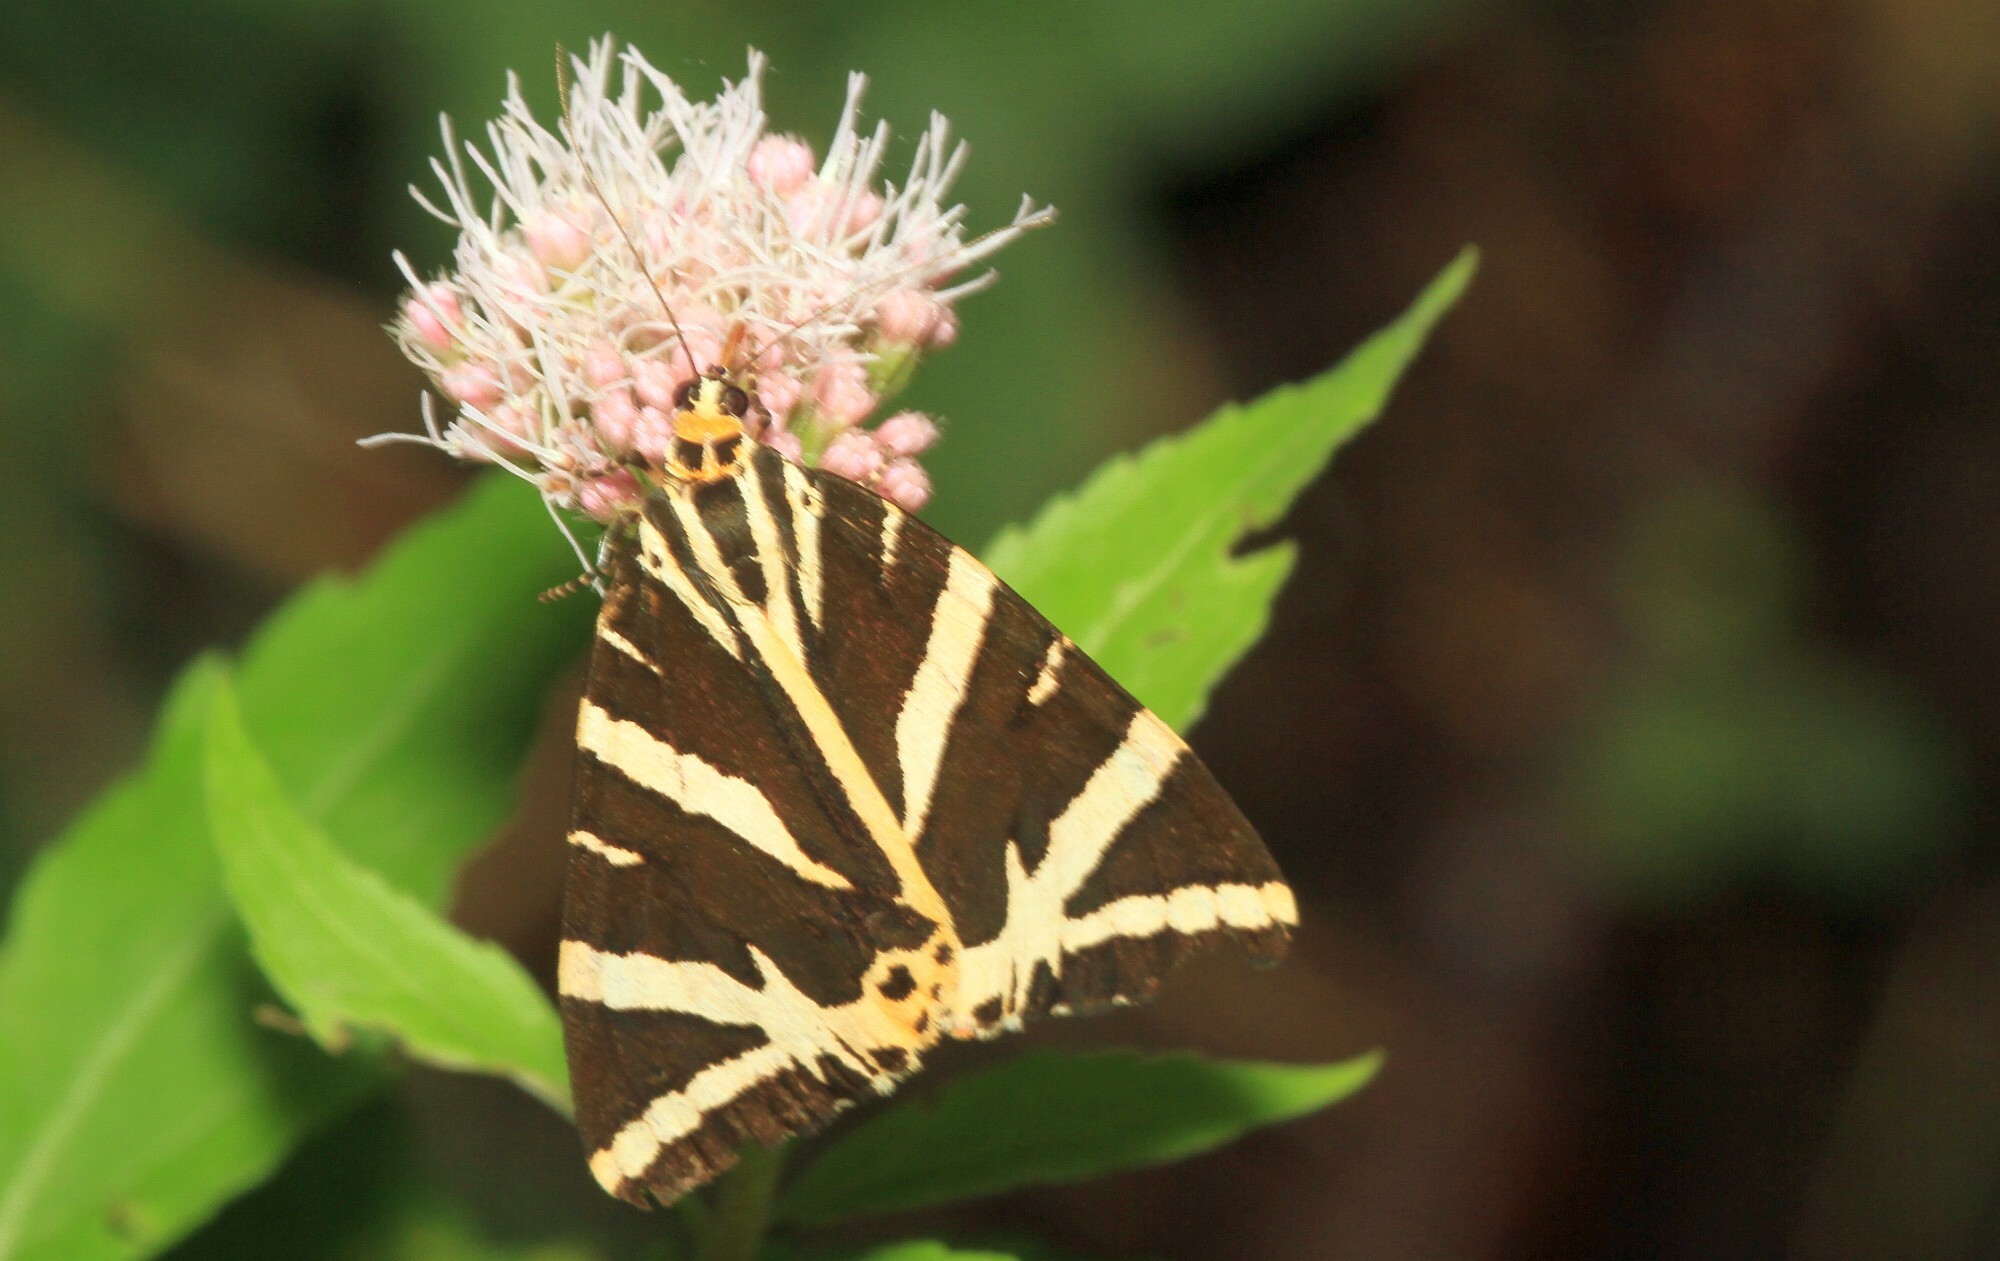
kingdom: Animalia
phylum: Arthropoda
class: Insecta
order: Lepidoptera
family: Erebidae
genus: Euplagia
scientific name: Euplagia quadripunctaria
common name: Jersey tiger
